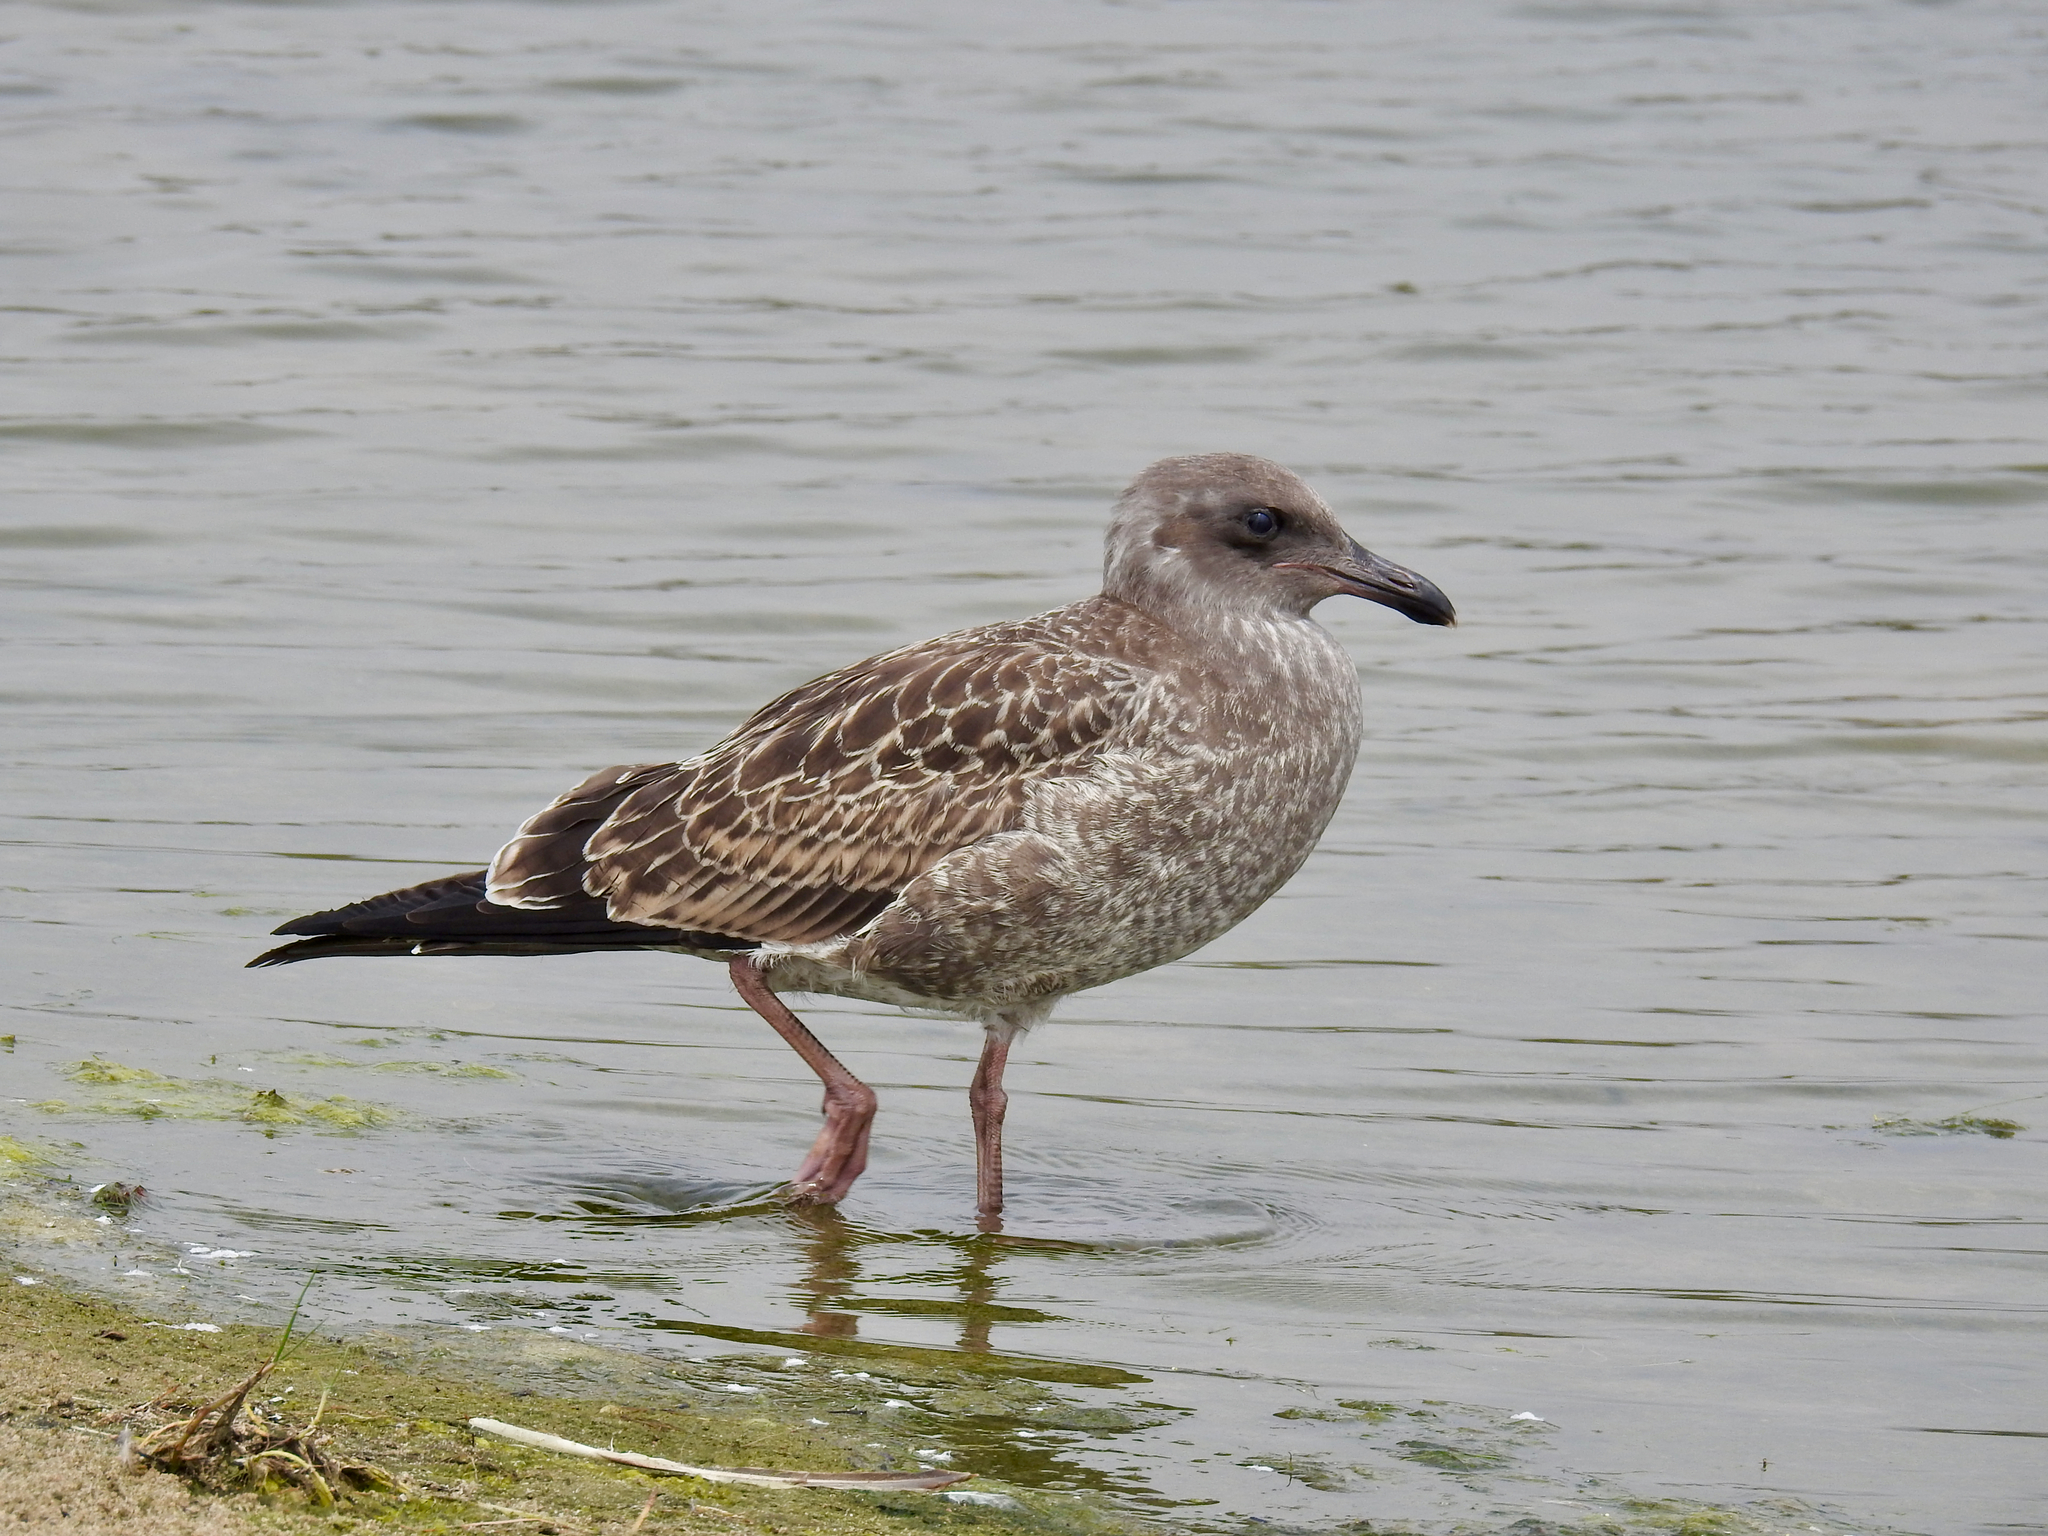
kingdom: Animalia
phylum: Chordata
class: Aves
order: Charadriiformes
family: Laridae
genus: Larus
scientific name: Larus occidentalis
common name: Western gull
